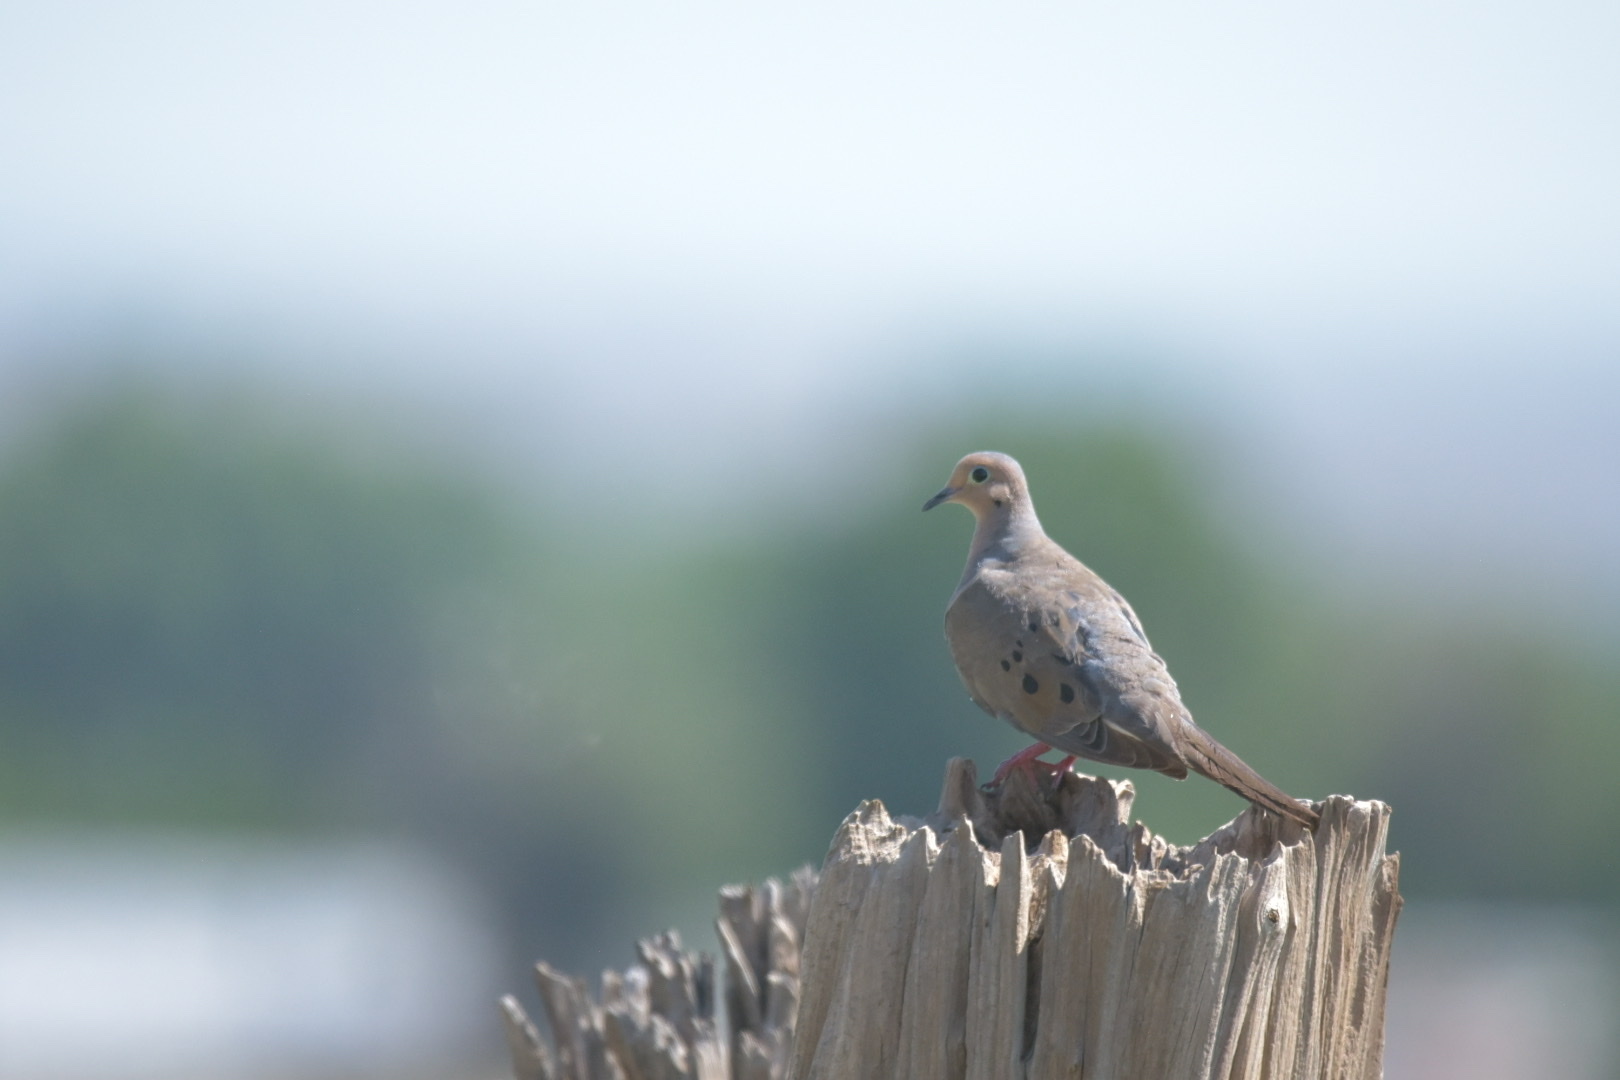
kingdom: Animalia
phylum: Chordata
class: Aves
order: Columbiformes
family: Columbidae
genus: Zenaida
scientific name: Zenaida macroura
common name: Mourning dove
